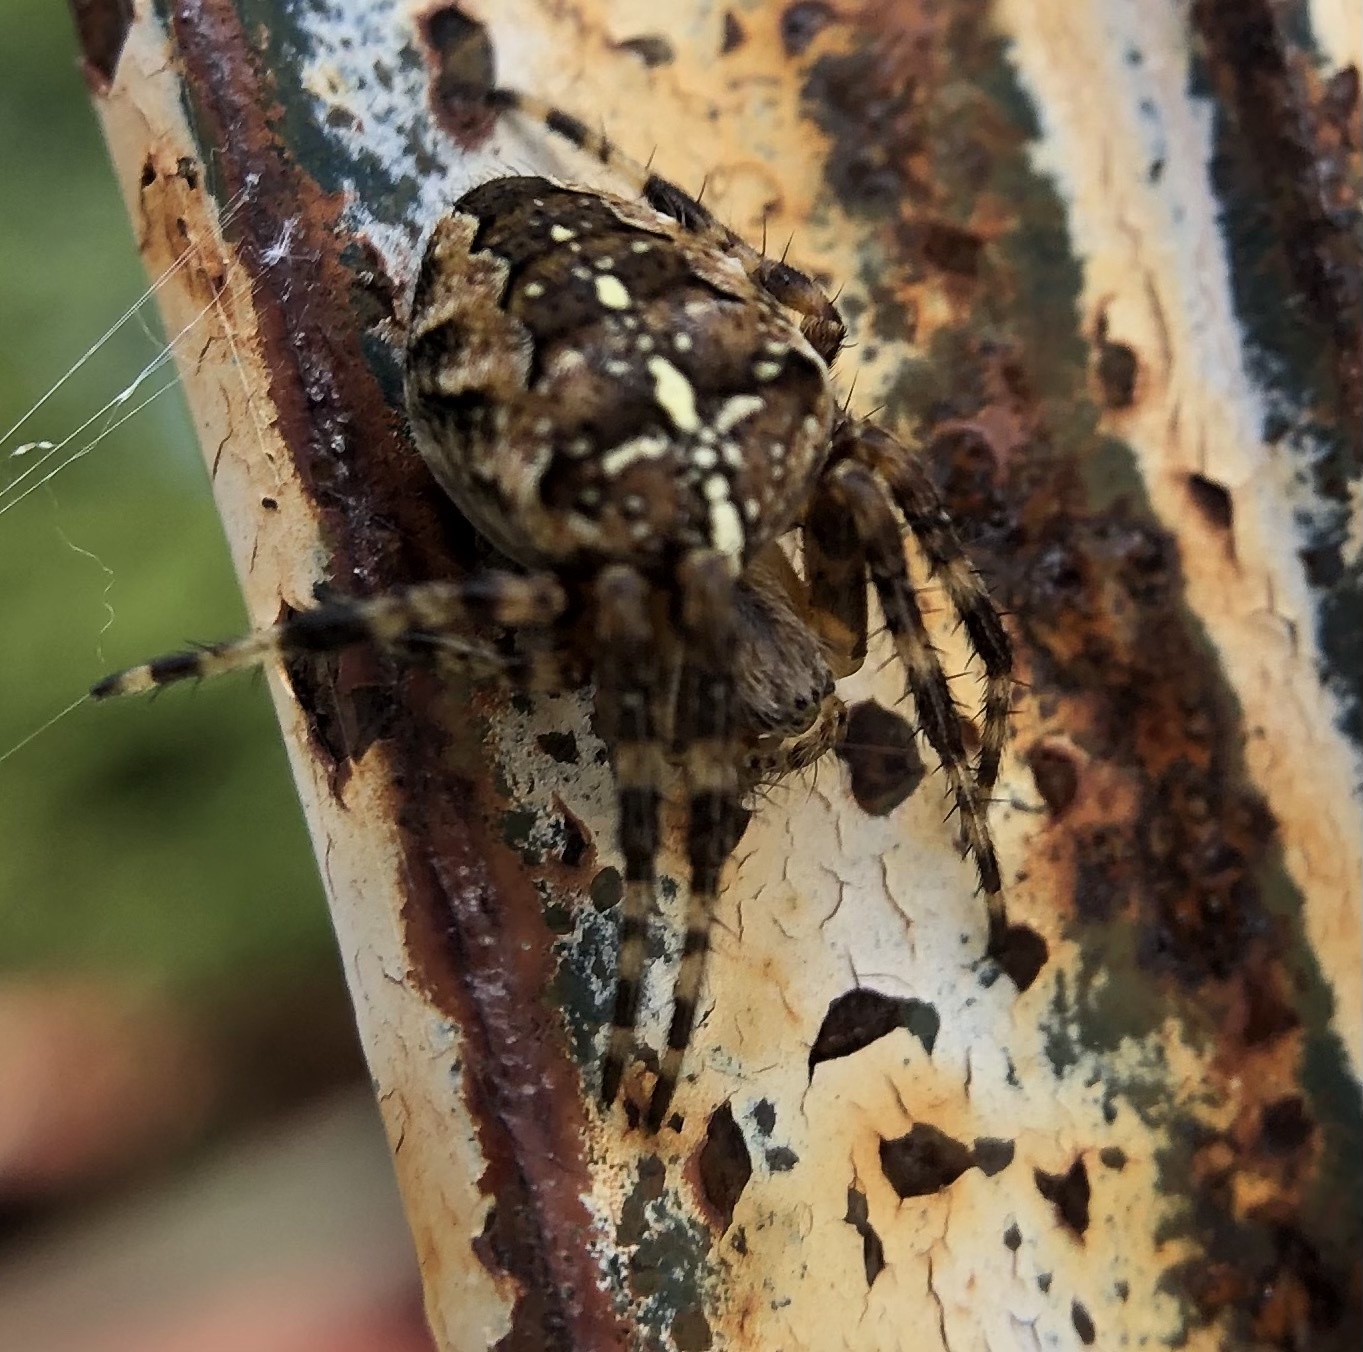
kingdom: Animalia
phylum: Arthropoda
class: Arachnida
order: Araneae
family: Araneidae
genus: Araneus
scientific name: Araneus diadematus
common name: Cross orbweaver
